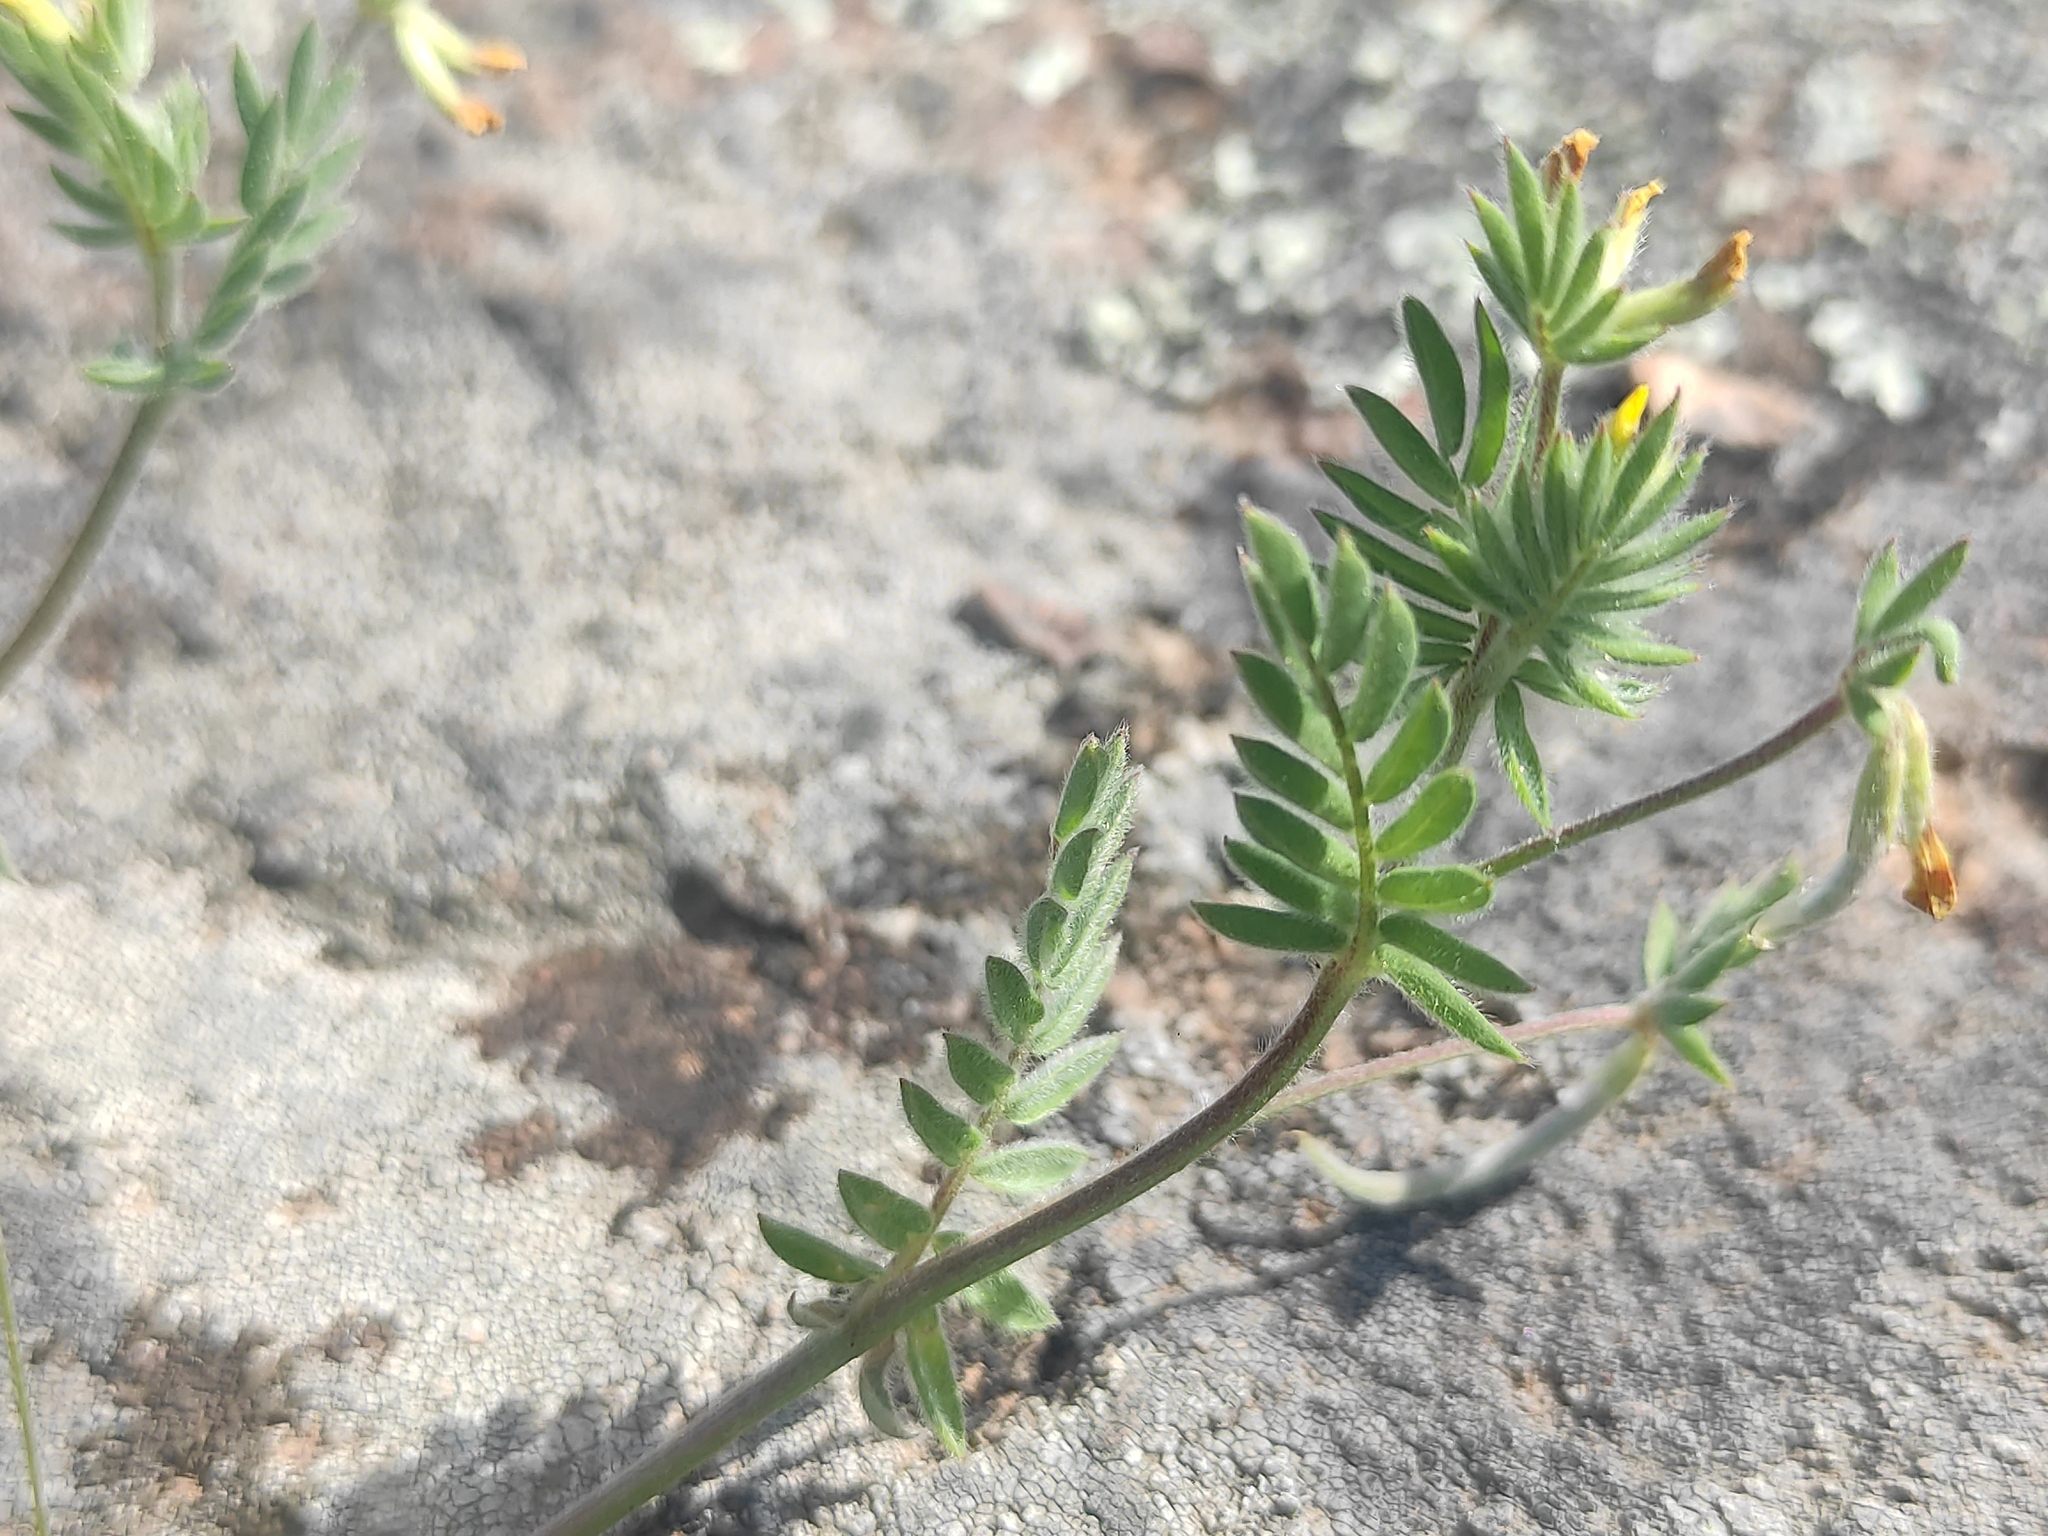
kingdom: Plantae
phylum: Tracheophyta
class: Magnoliopsida
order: Fabales
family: Fabaceae
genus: Ornithopus
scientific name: Ornithopus compressus
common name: Yellow serradella
